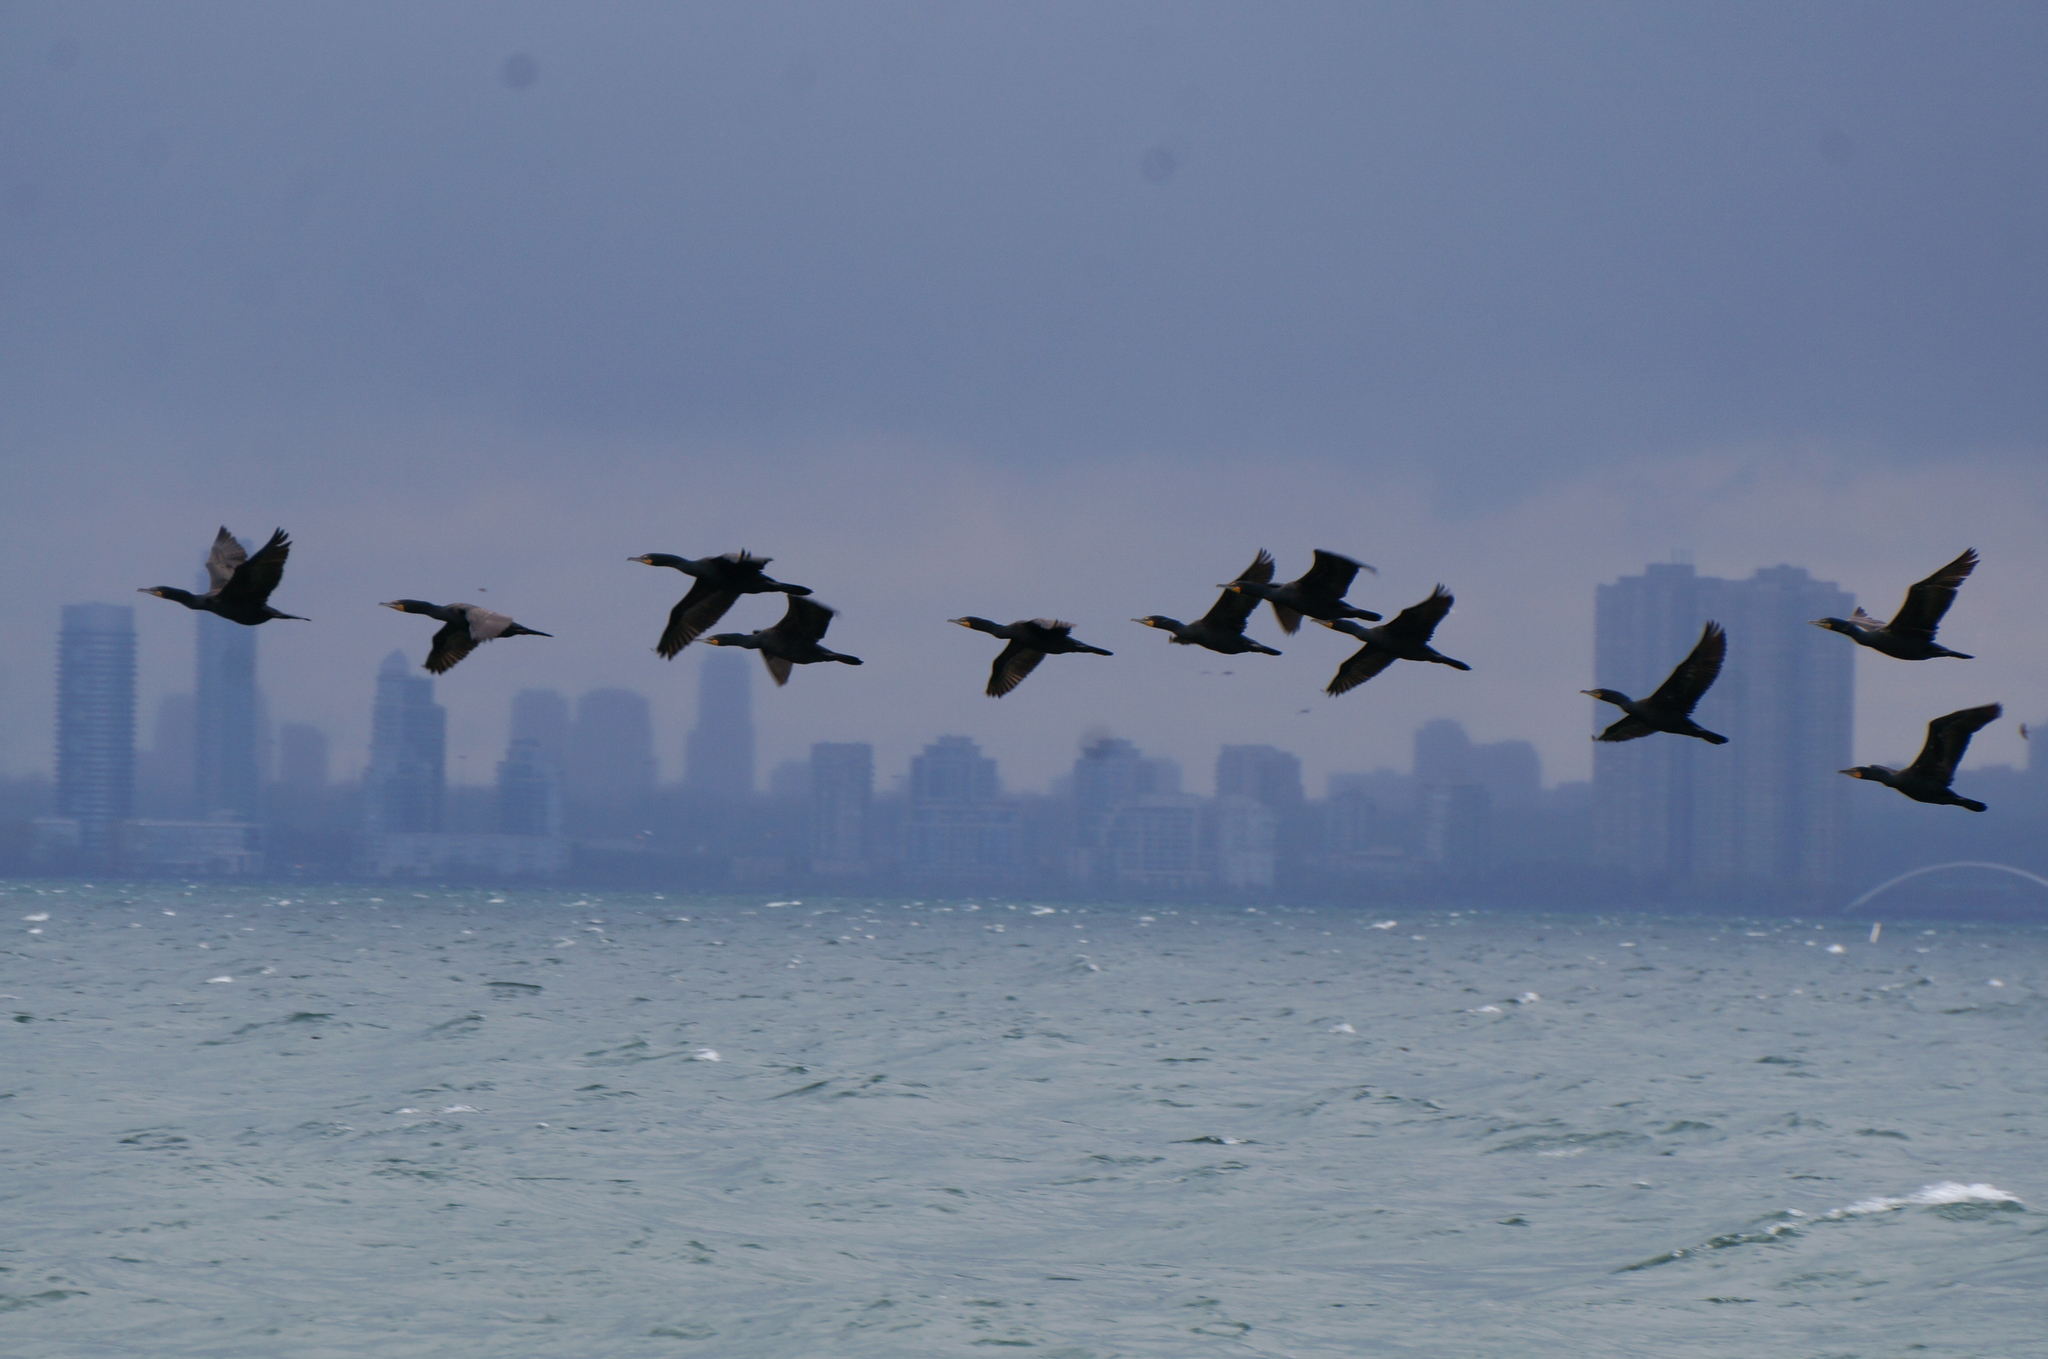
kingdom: Animalia
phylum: Chordata
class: Aves
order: Suliformes
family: Phalacrocoracidae
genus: Phalacrocorax
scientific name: Phalacrocorax auritus
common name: Double-crested cormorant
